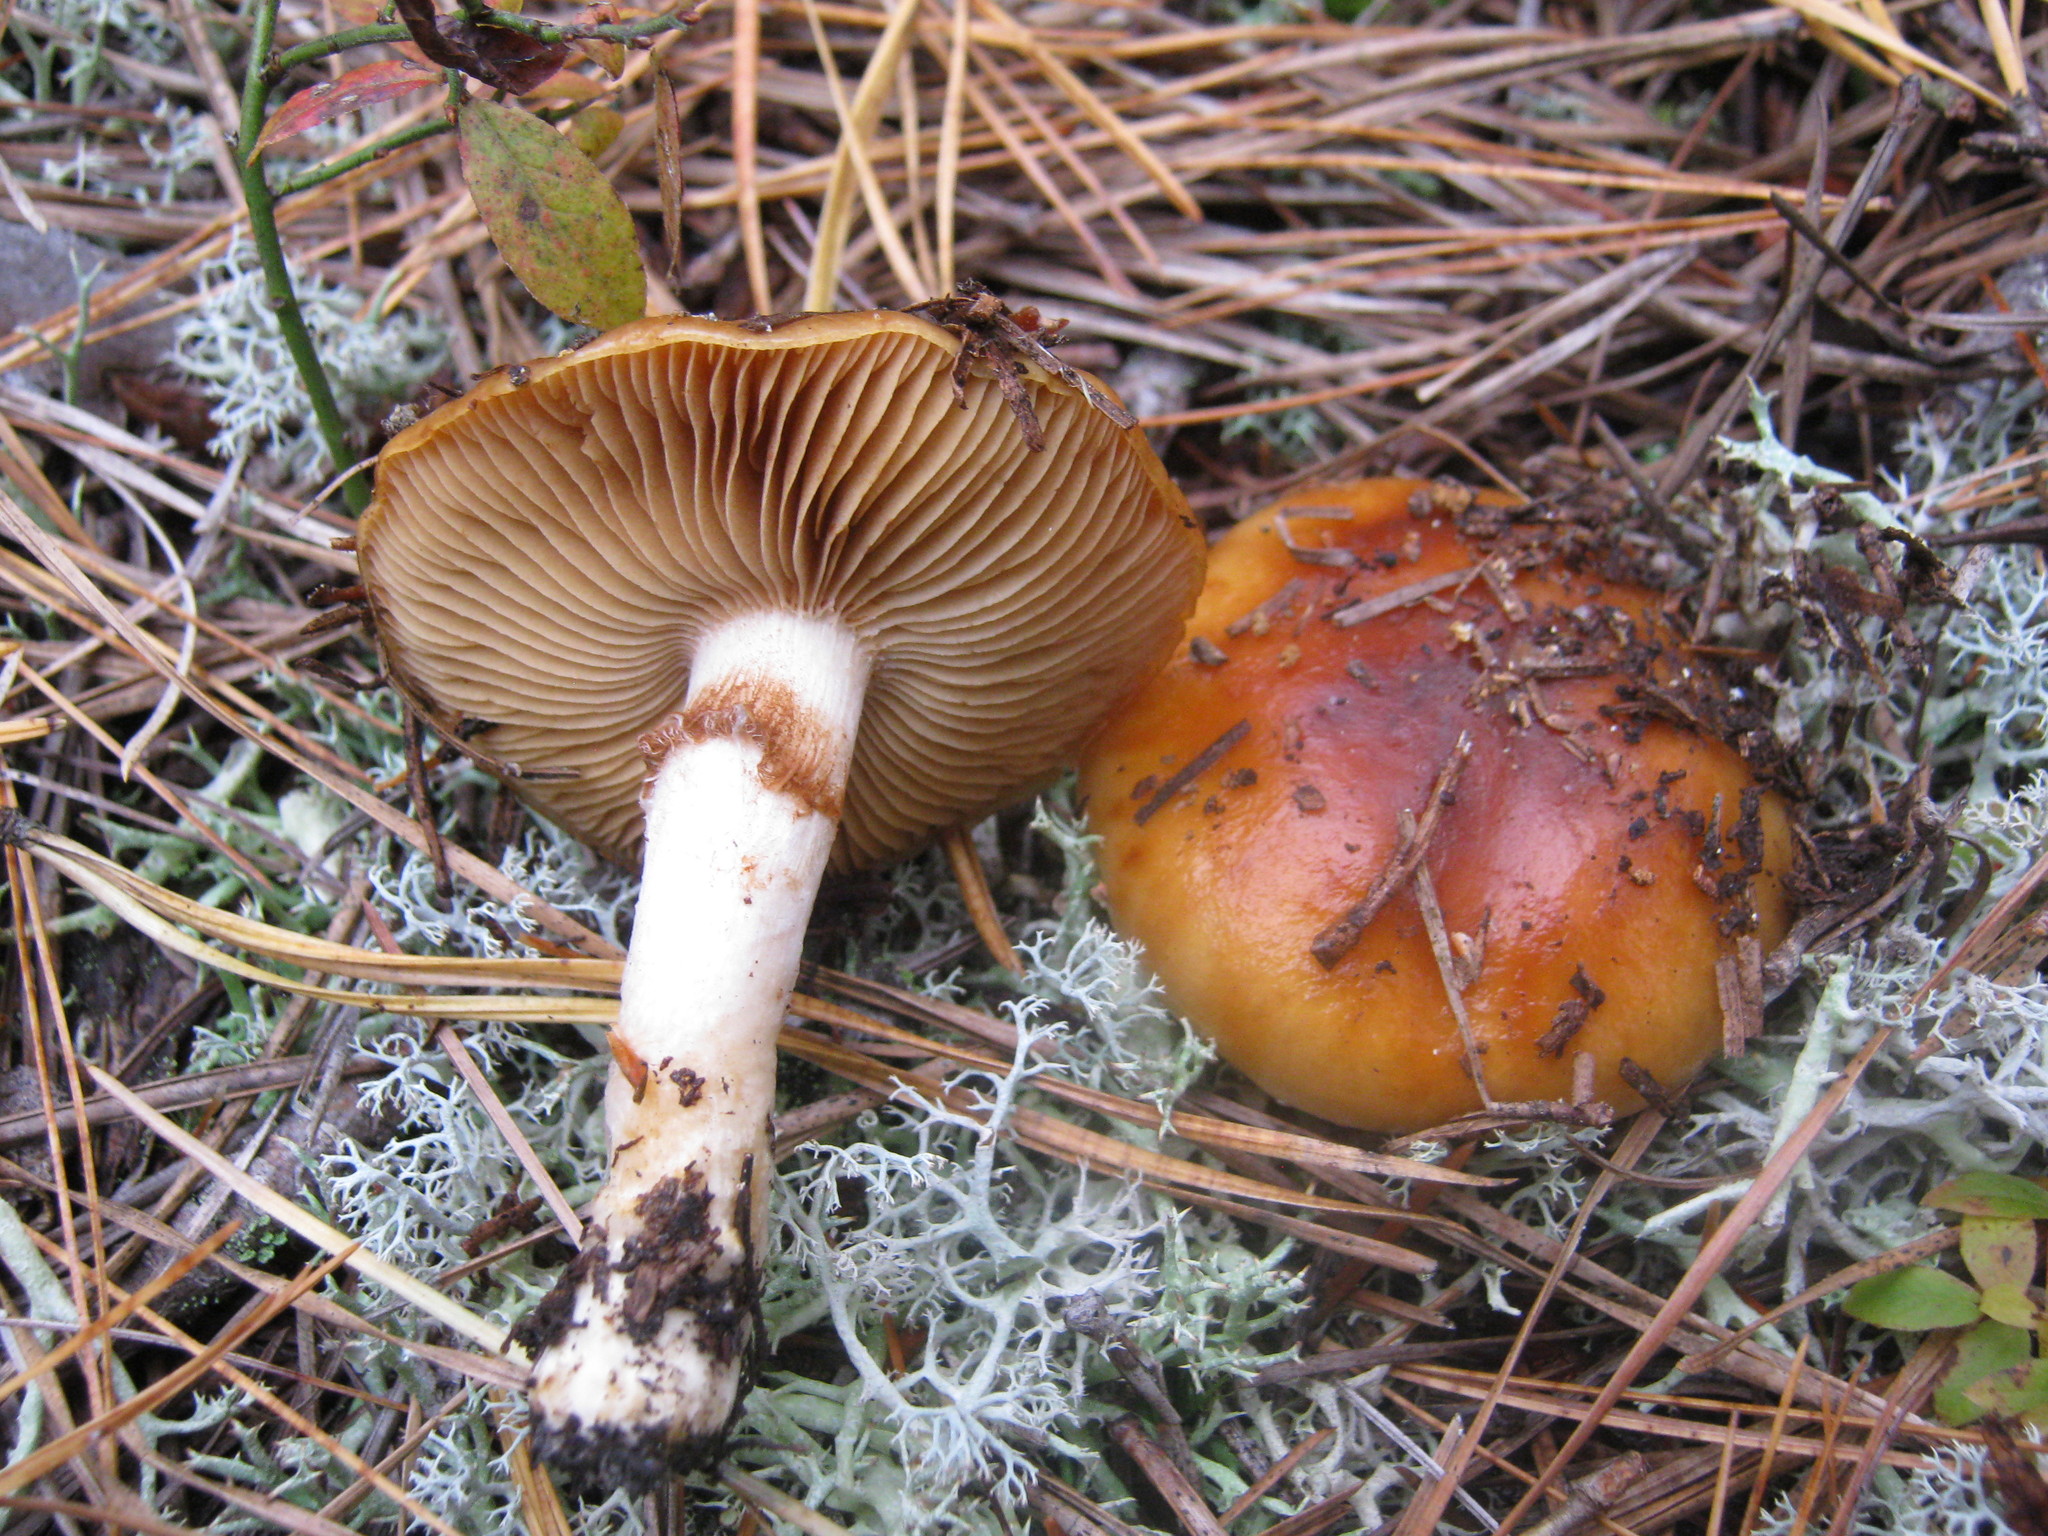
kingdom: Fungi
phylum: Basidiomycota
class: Agaricomycetes
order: Agaricales
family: Cortinariaceae
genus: Cortinarius
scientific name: Cortinarius mucosus
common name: Orange webcap
